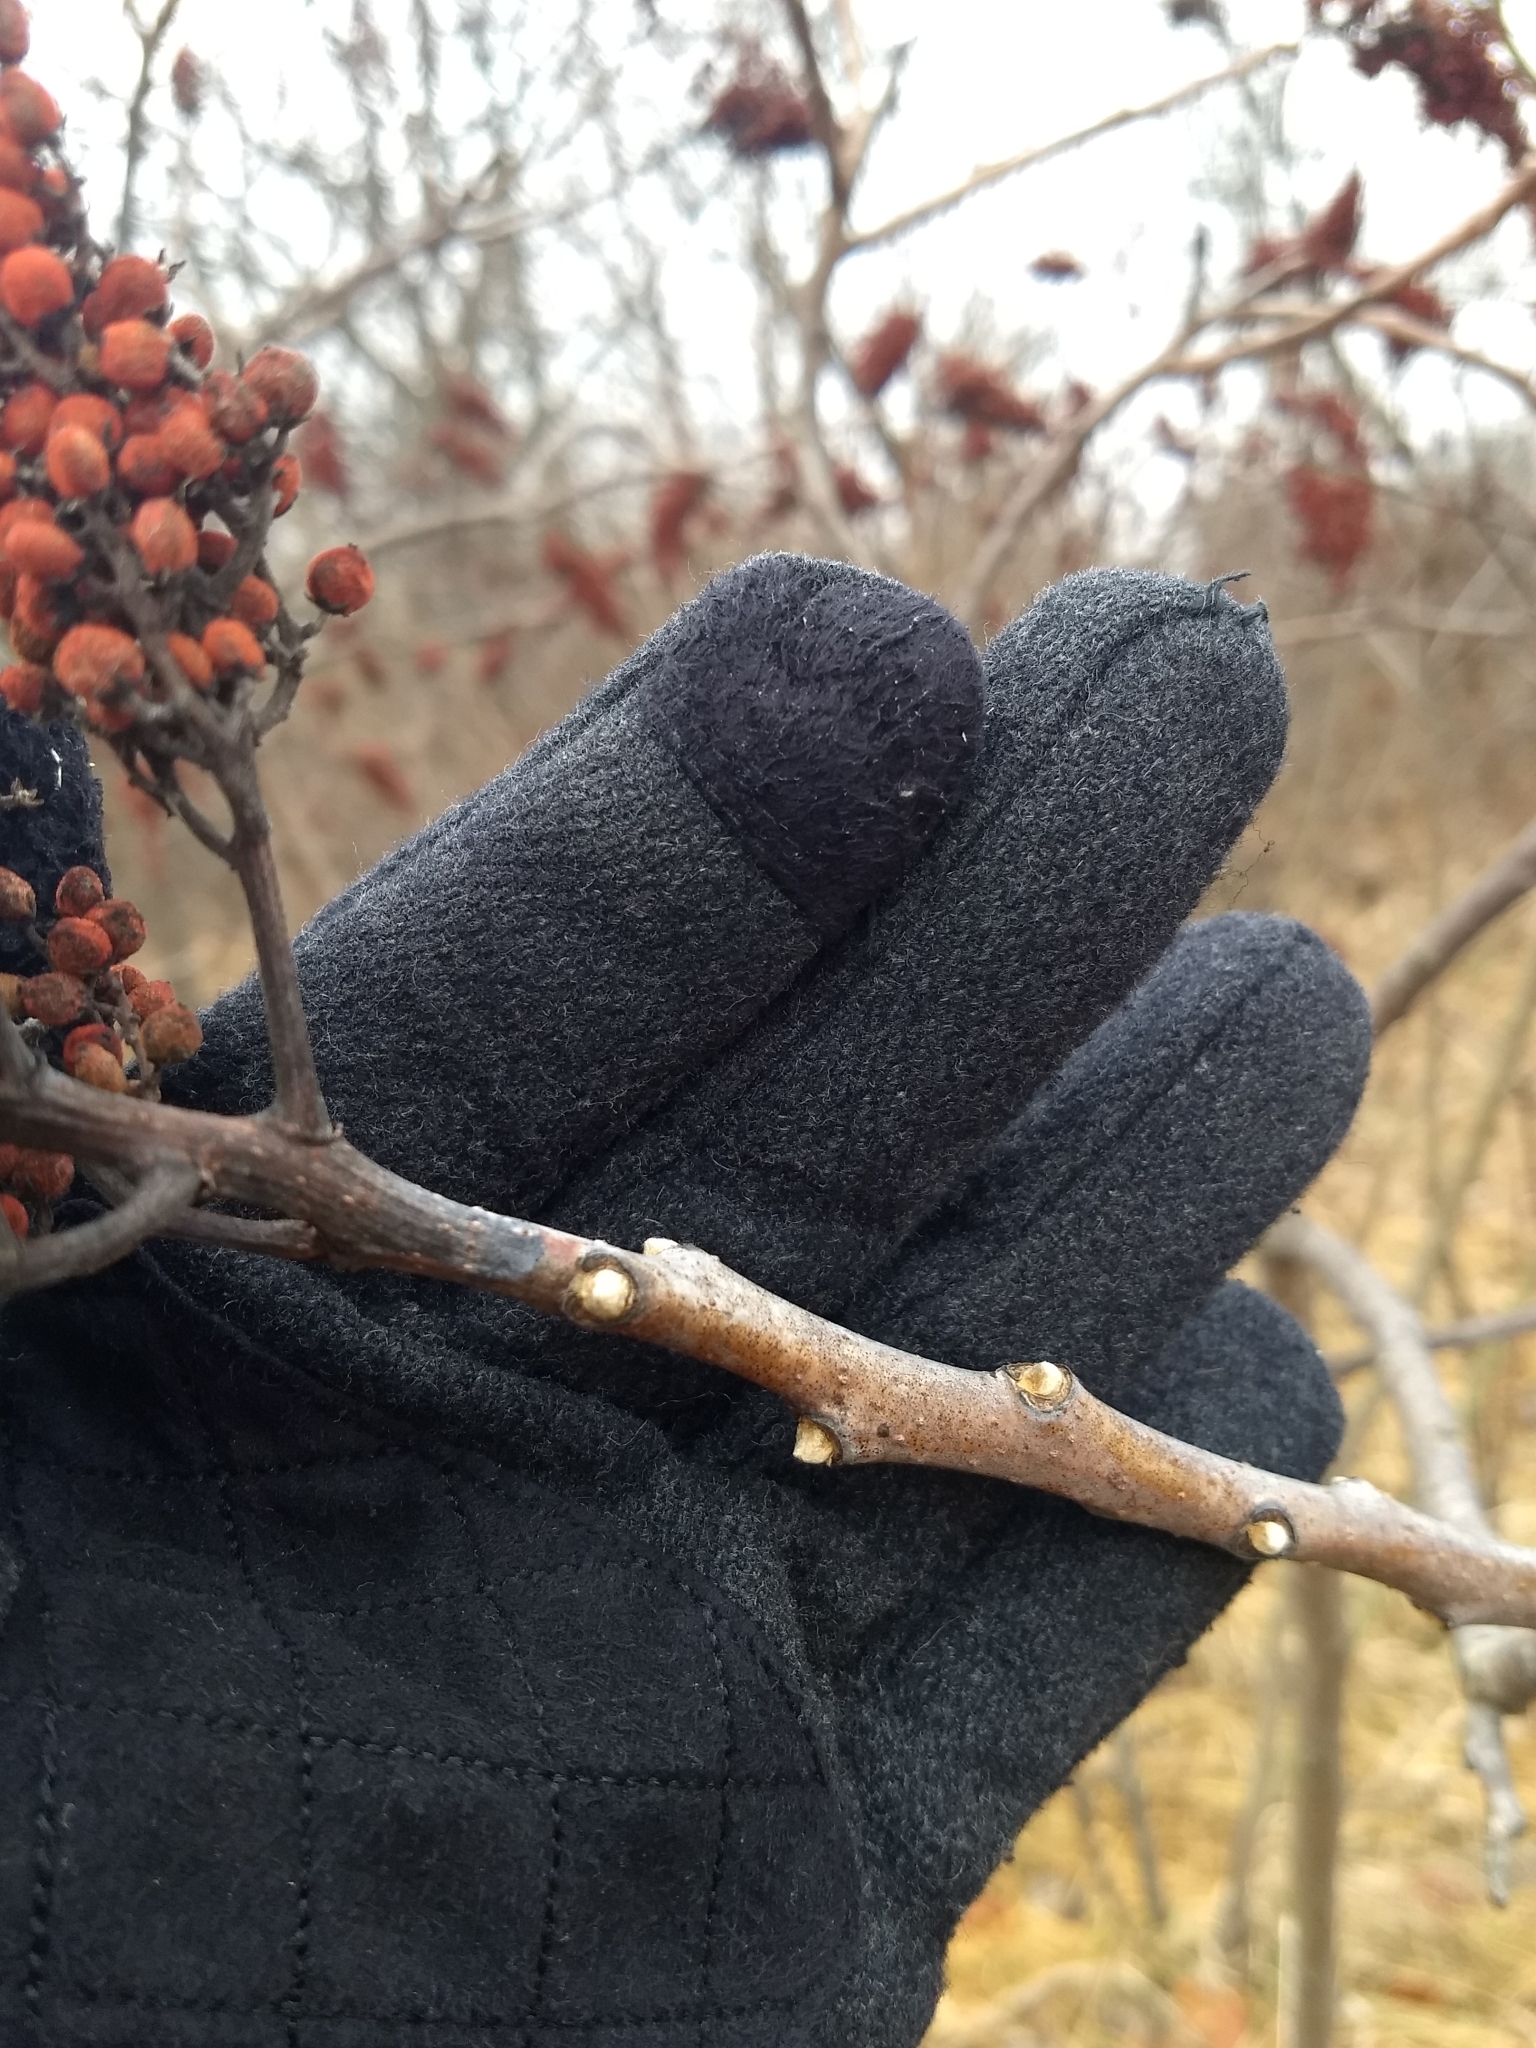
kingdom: Plantae
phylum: Tracheophyta
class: Magnoliopsida
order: Sapindales
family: Anacardiaceae
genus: Rhus
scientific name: Rhus glabra
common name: Scarlet sumac
